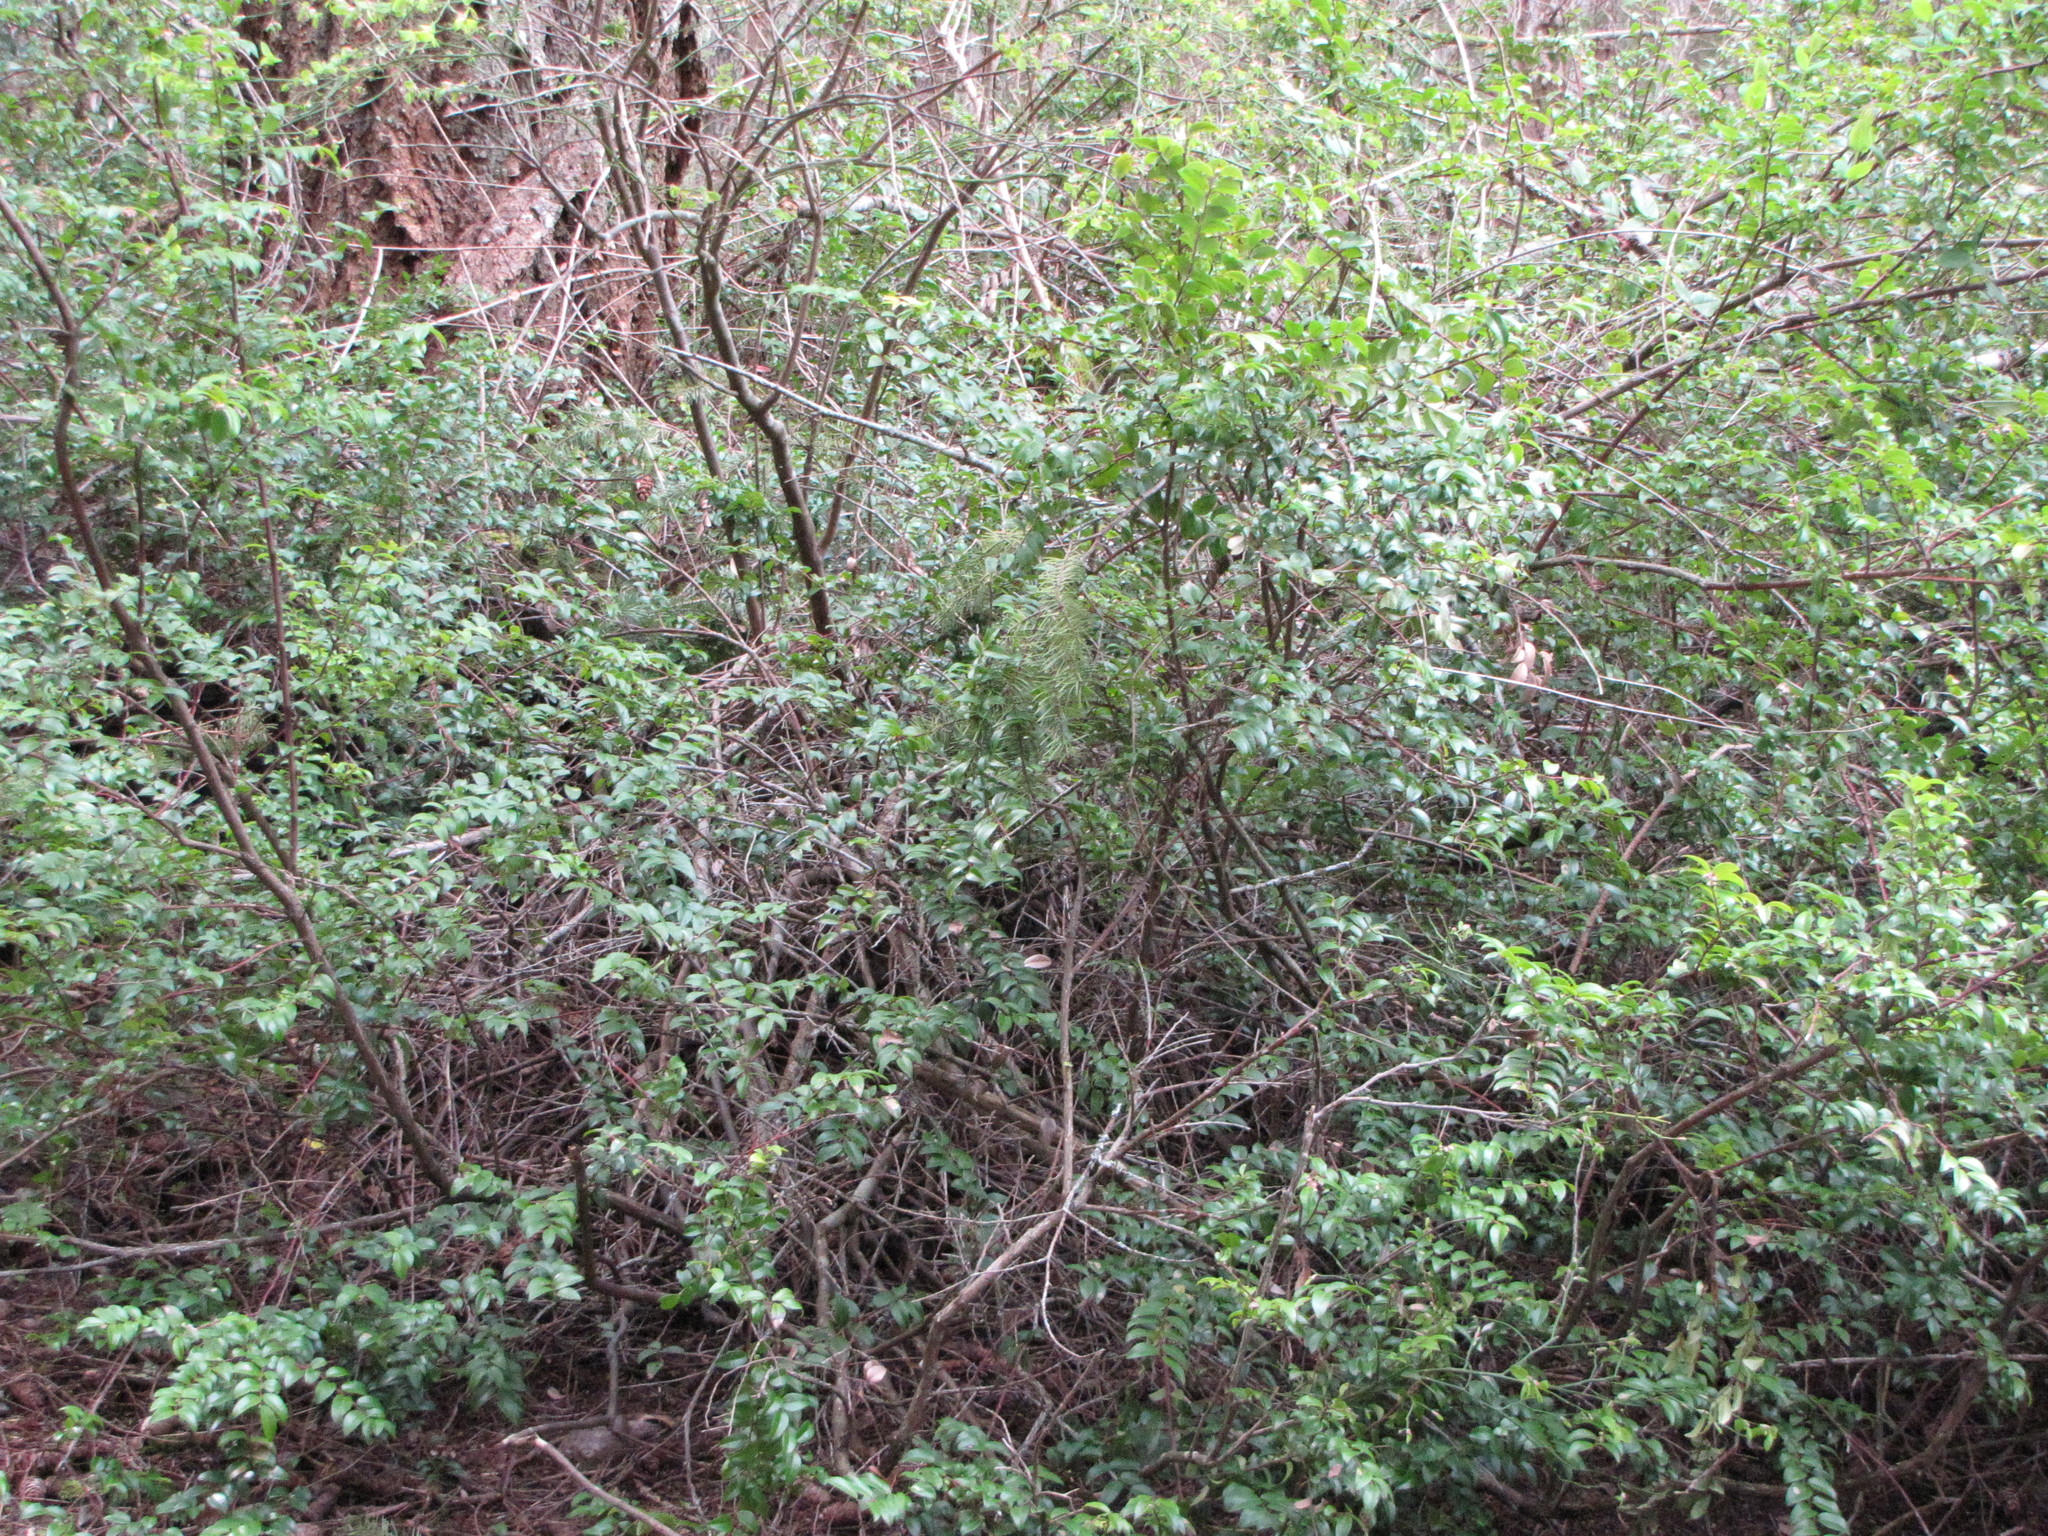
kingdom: Plantae
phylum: Tracheophyta
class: Magnoliopsida
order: Ericales
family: Ericaceae
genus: Vaccinium
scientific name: Vaccinium ovatum
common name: California-huckleberry
